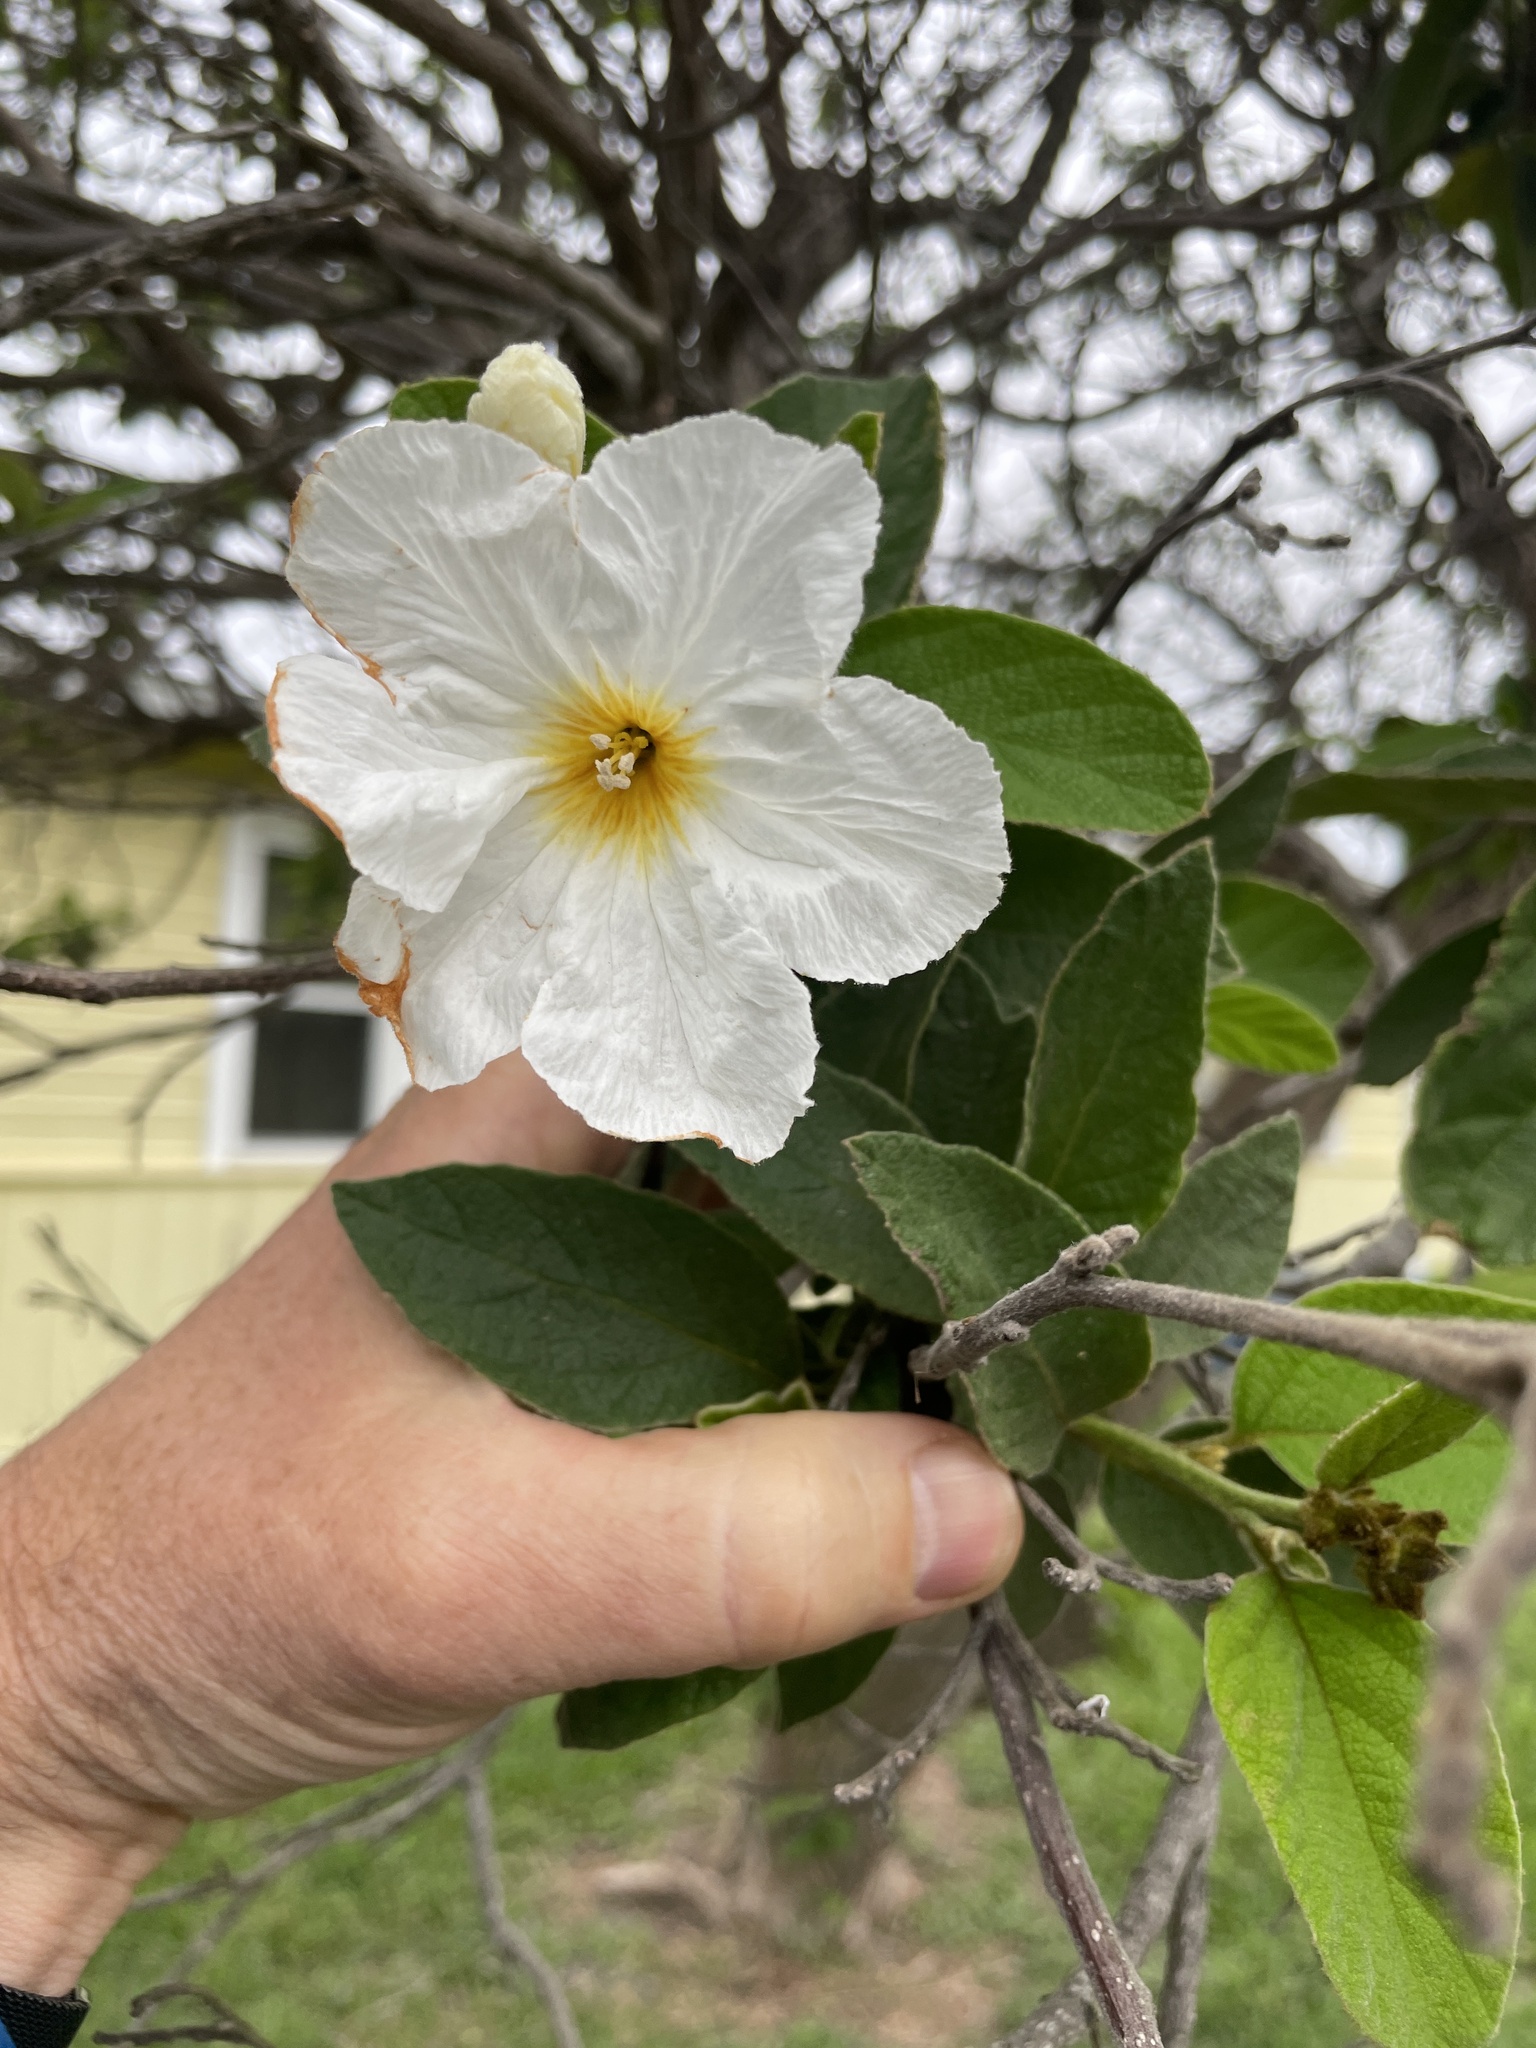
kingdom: Plantae
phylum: Tracheophyta
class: Magnoliopsida
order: Boraginales
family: Cordiaceae
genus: Cordia
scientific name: Cordia boissieri
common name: Mexican-olive
